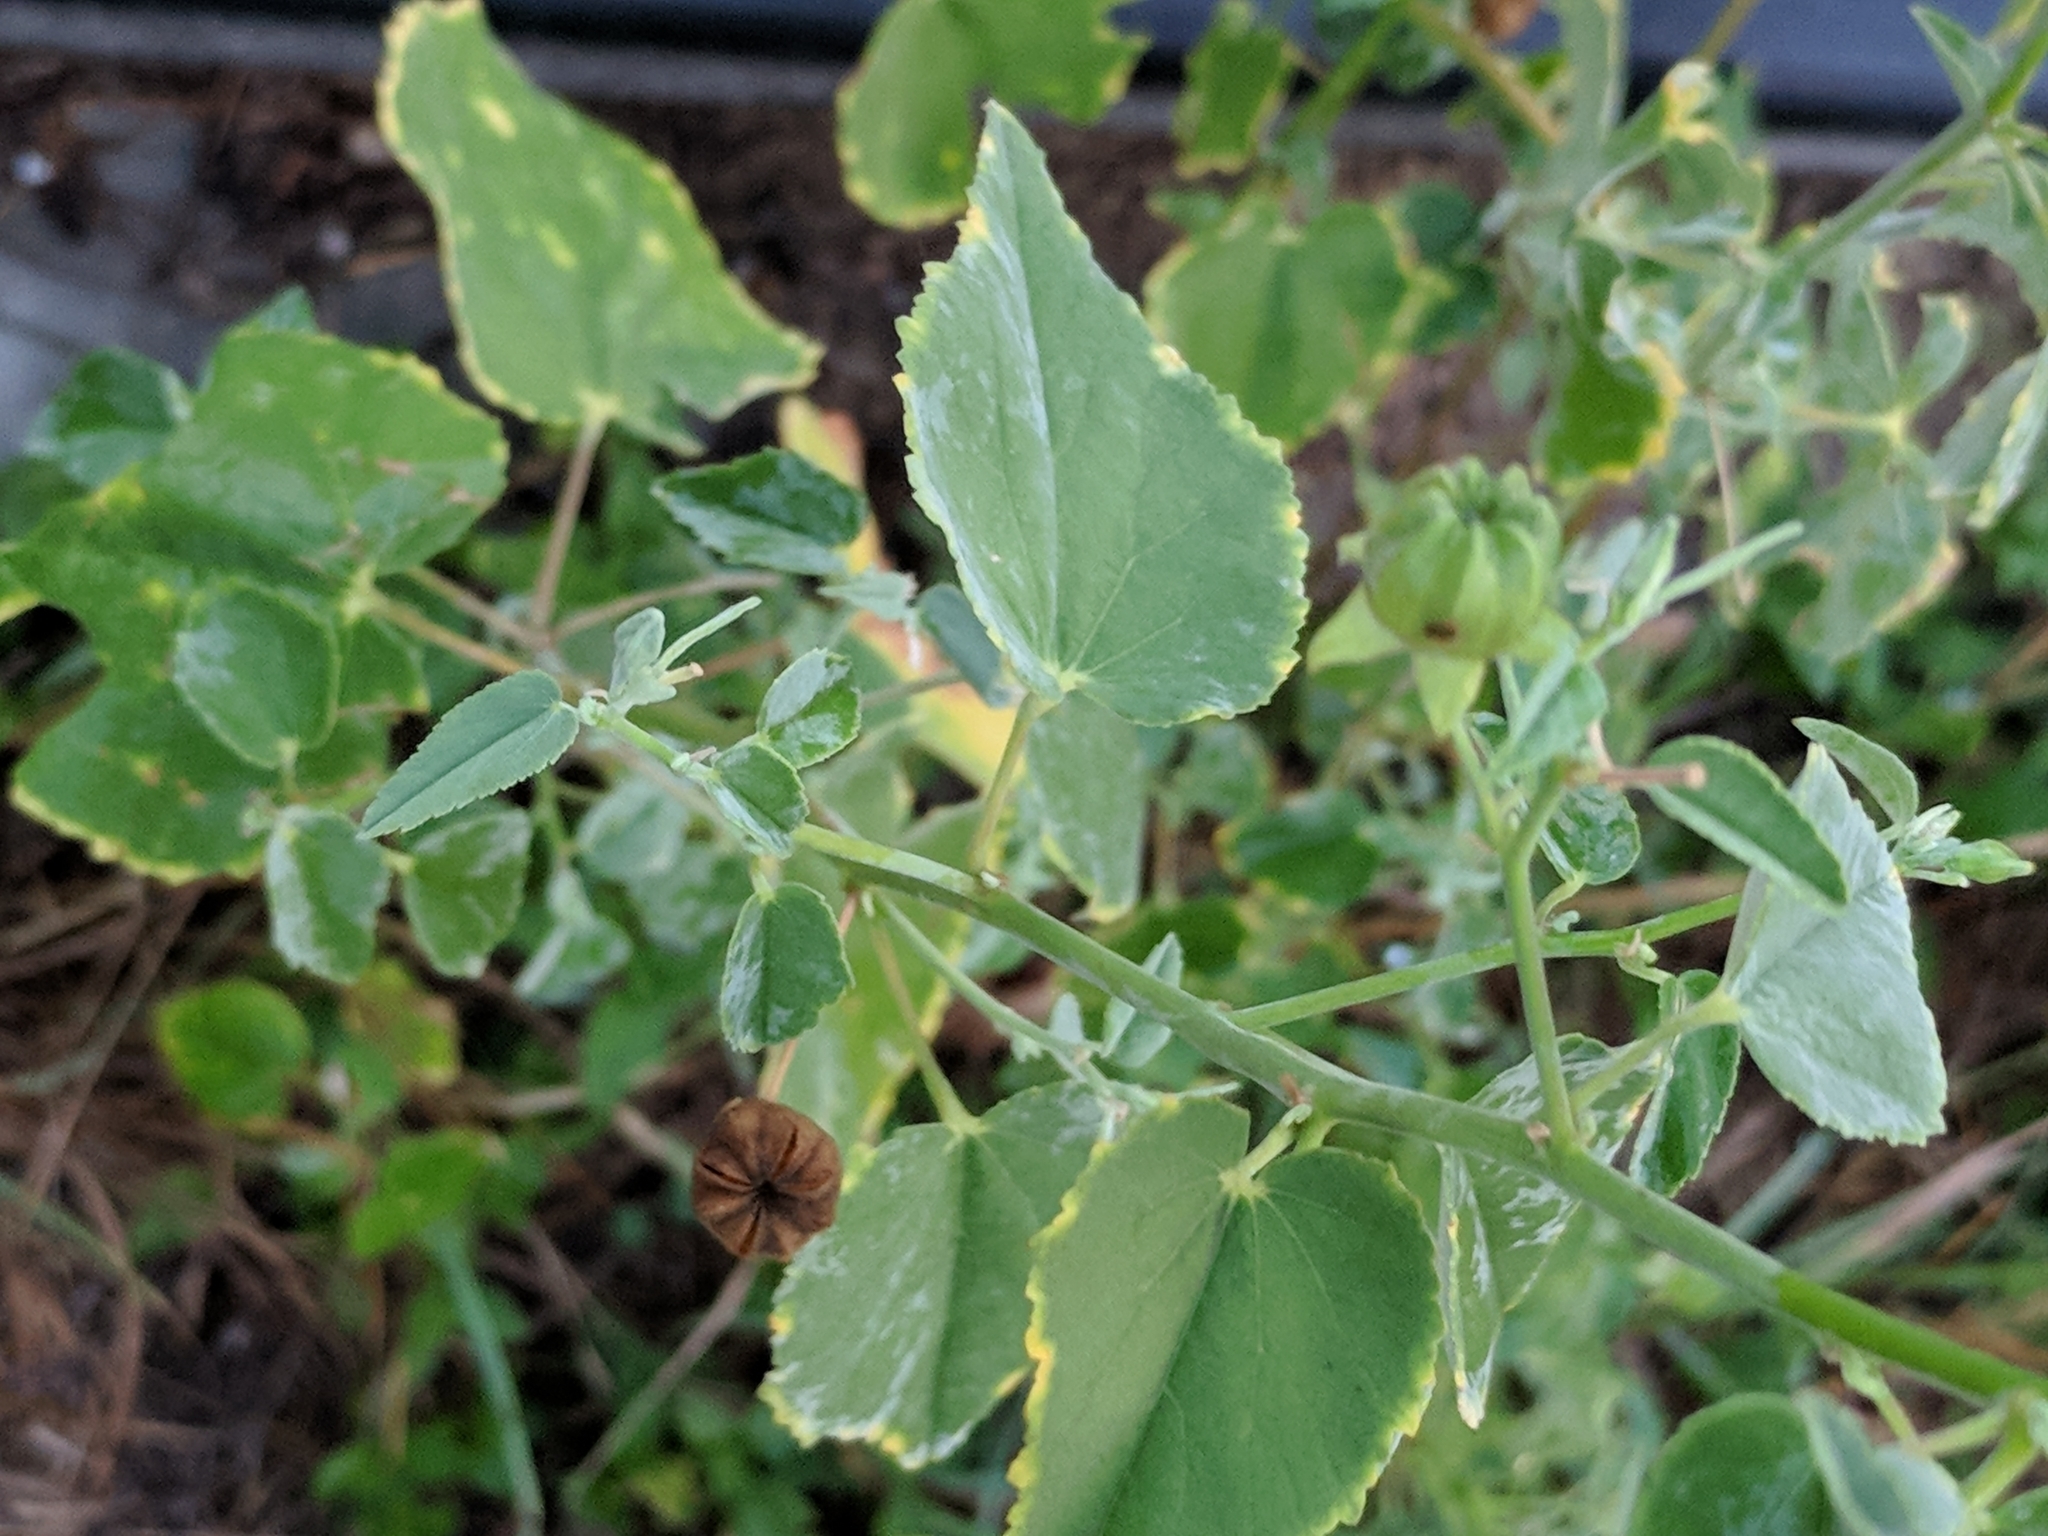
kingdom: Plantae
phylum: Tracheophyta
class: Magnoliopsida
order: Malvales
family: Malvaceae
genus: Abutilon
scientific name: Abutilon fruticosum
